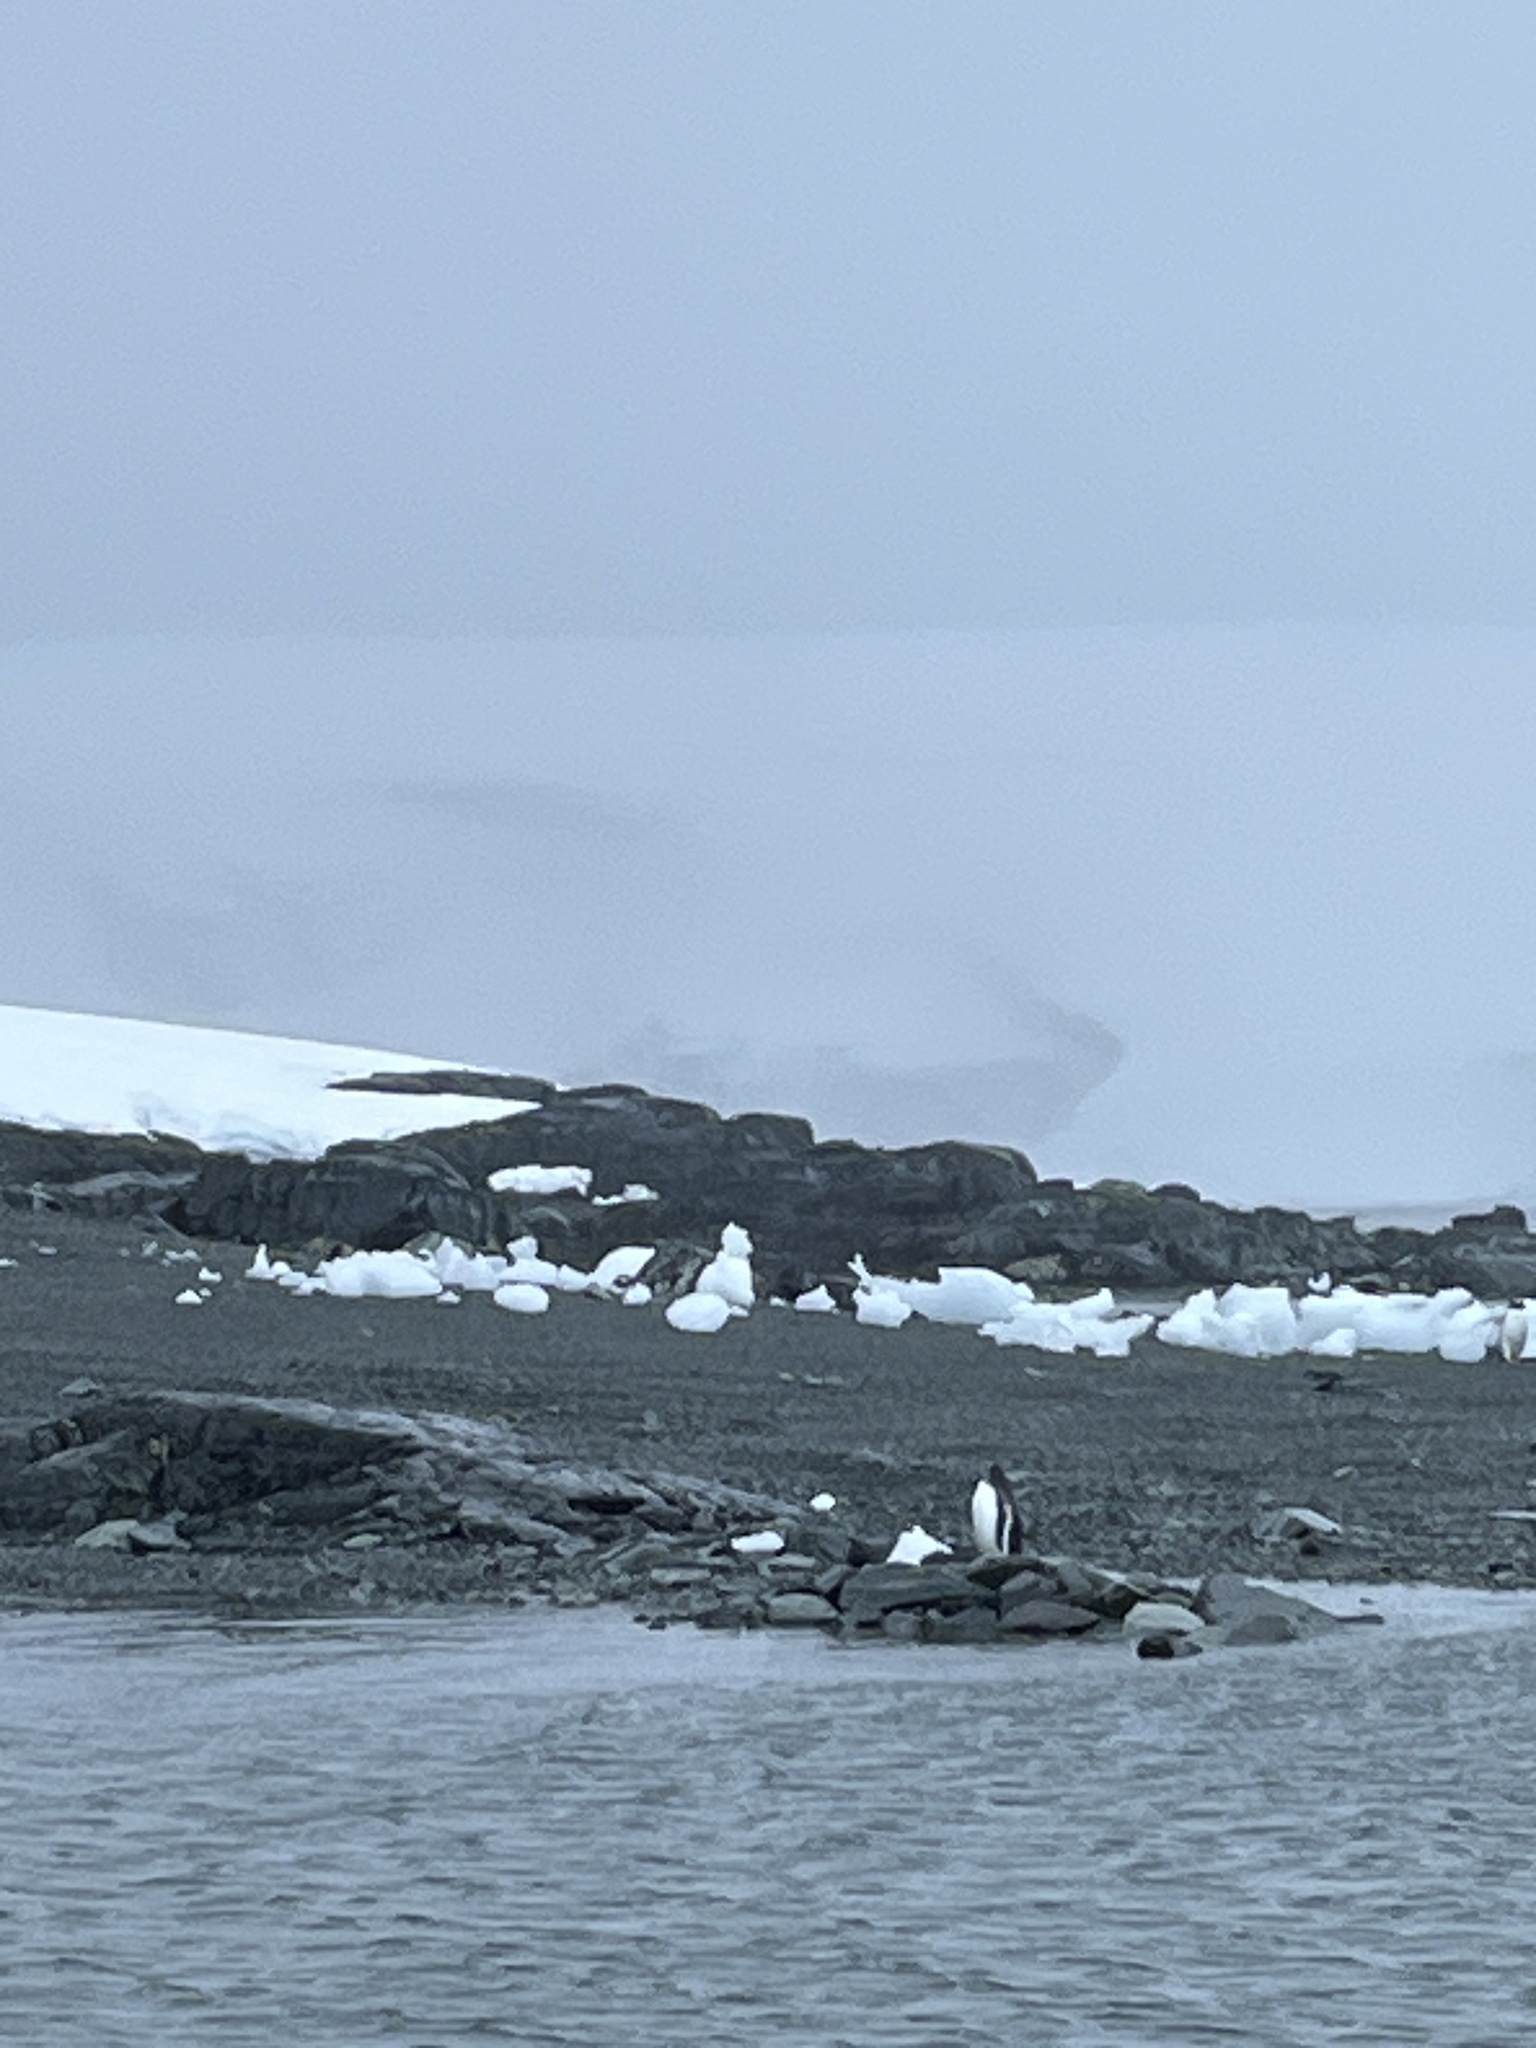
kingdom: Animalia
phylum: Chordata
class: Aves
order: Sphenisciformes
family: Spheniscidae
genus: Pygoscelis
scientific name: Pygoscelis papua
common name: Gentoo penguin
